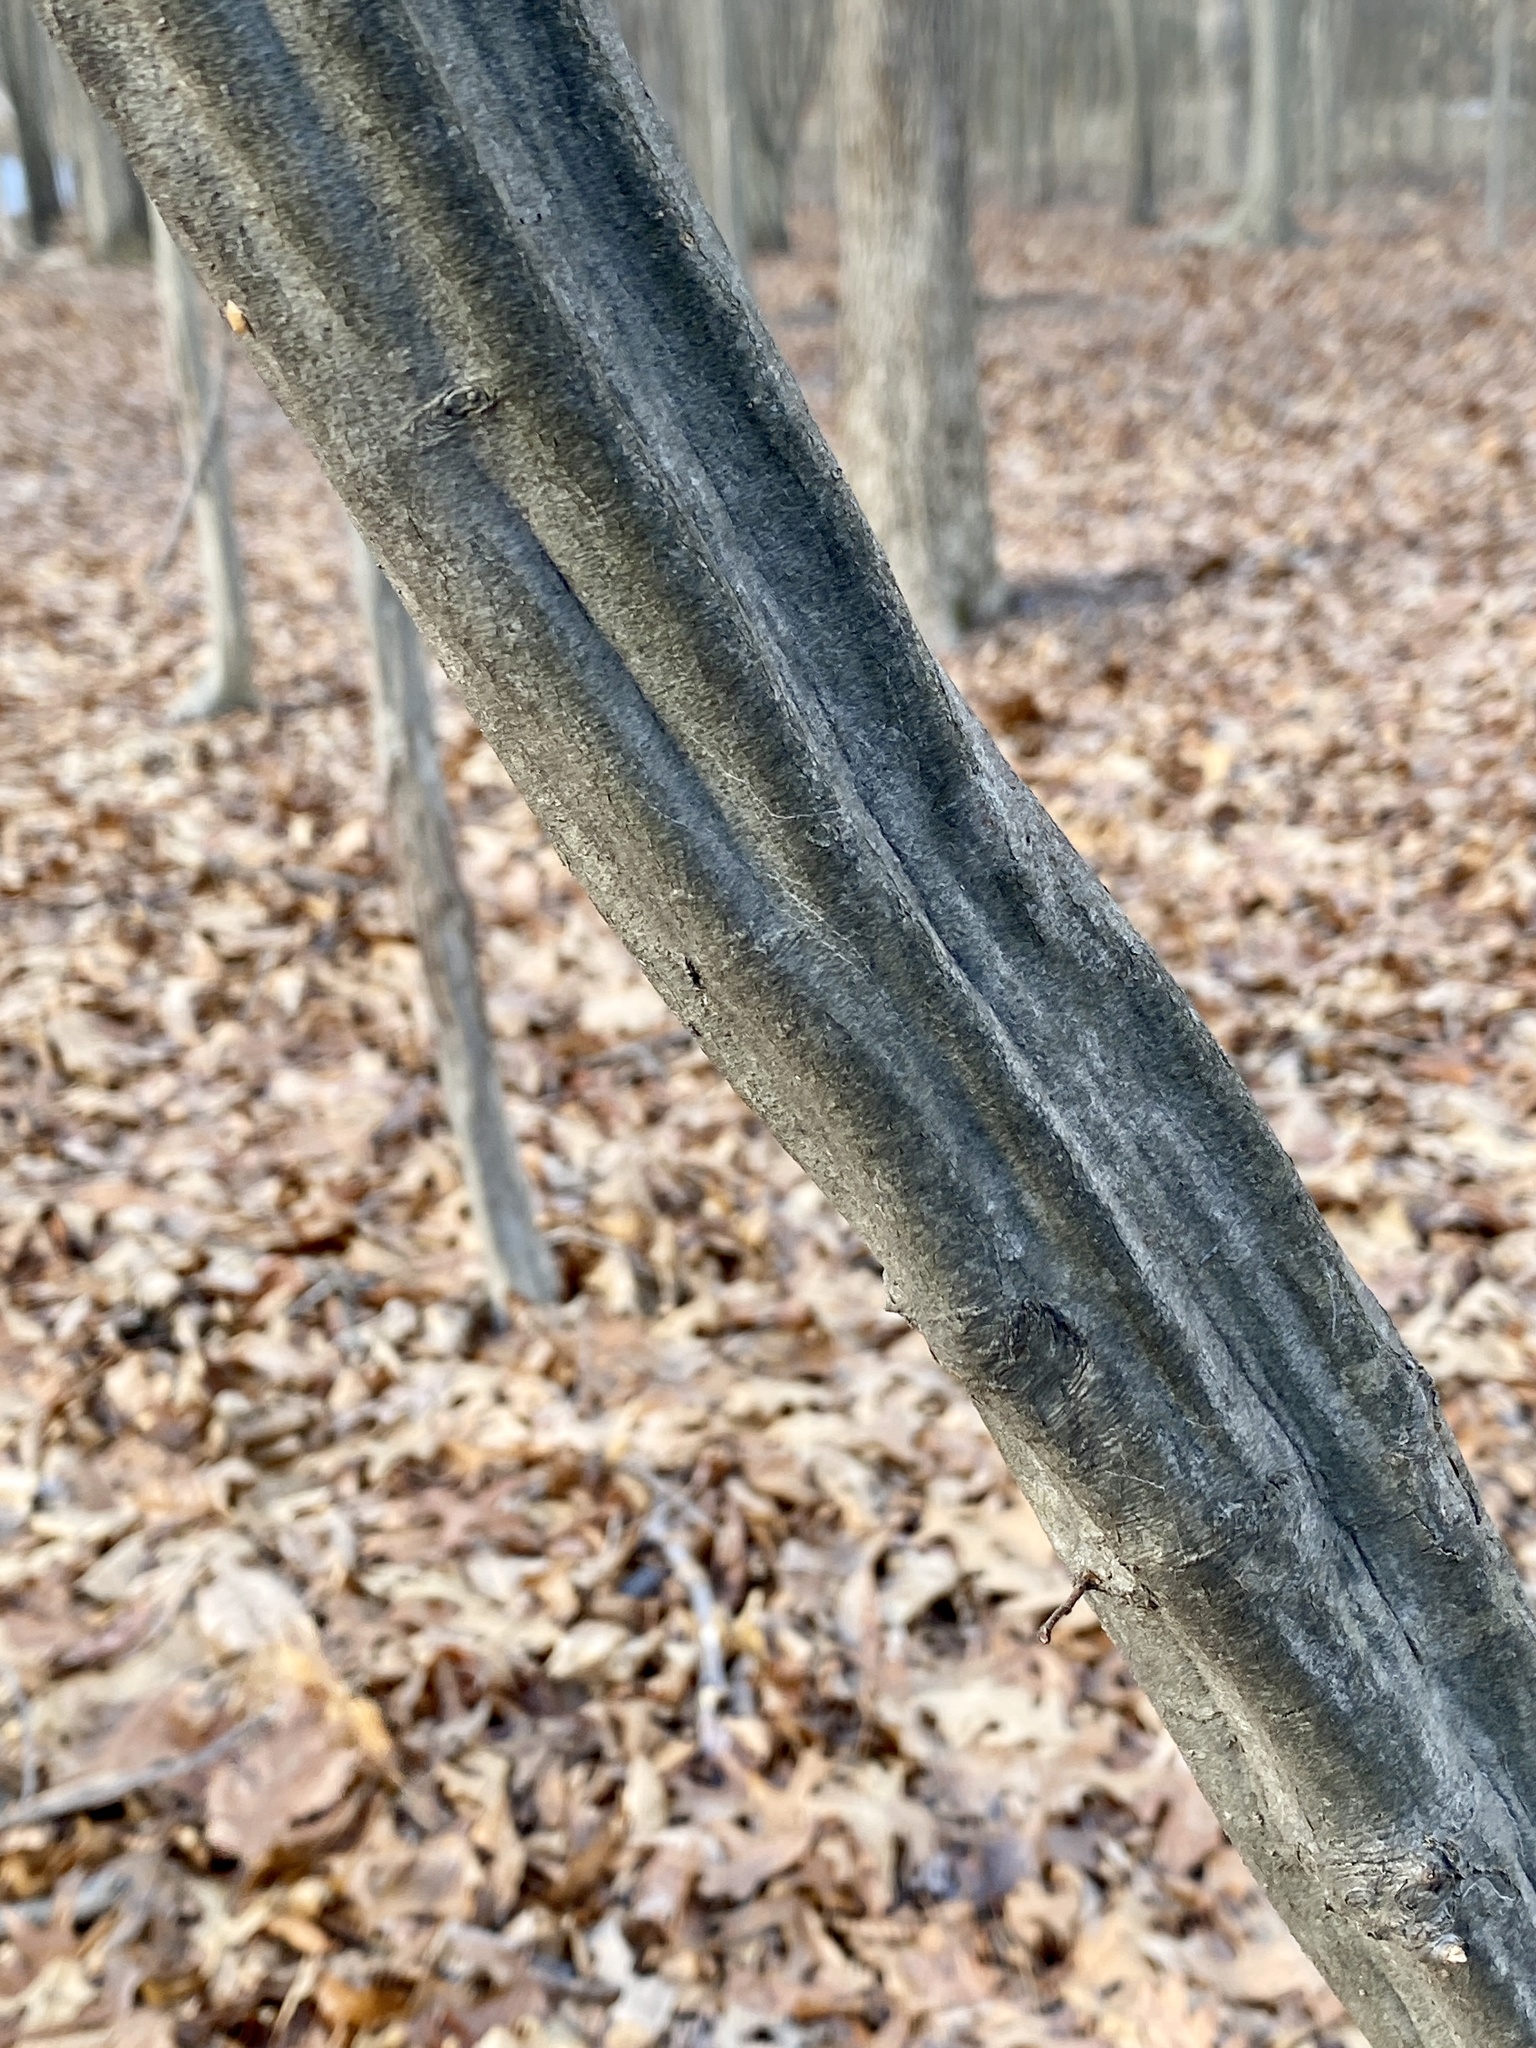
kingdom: Plantae
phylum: Tracheophyta
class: Magnoliopsida
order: Fagales
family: Betulaceae
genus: Carpinus
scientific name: Carpinus caroliniana
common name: American hornbeam
